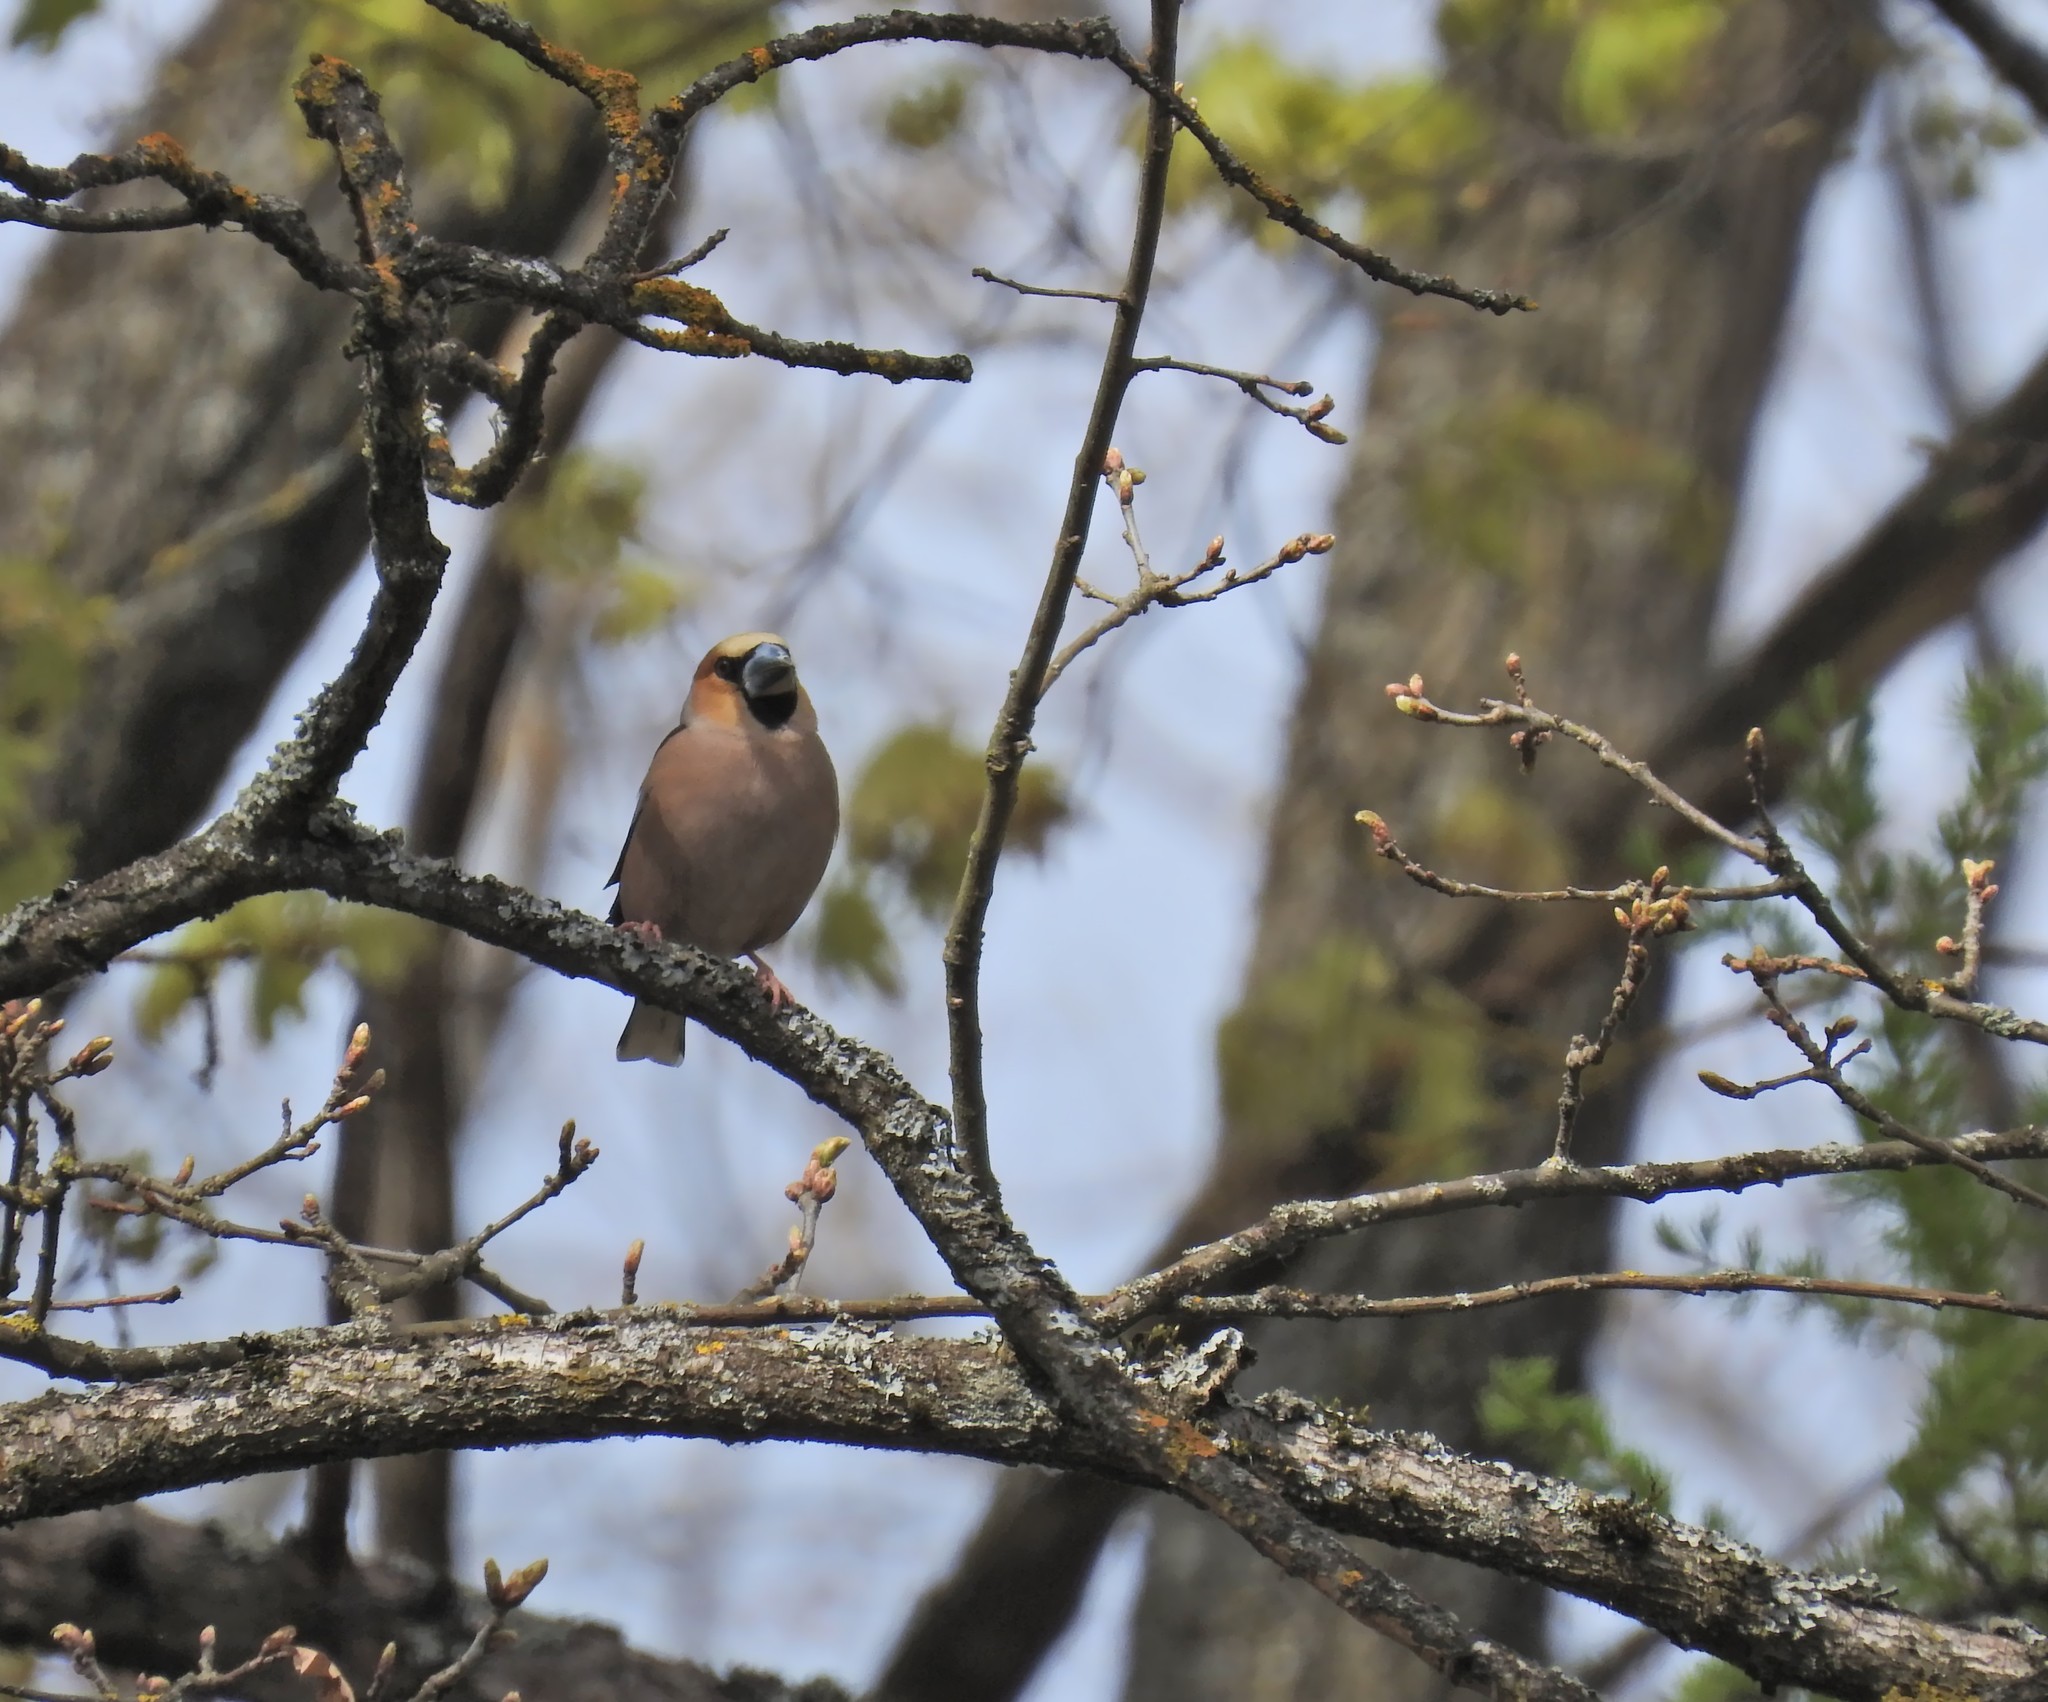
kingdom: Animalia
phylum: Chordata
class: Aves
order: Passeriformes
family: Fringillidae
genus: Coccothraustes
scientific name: Coccothraustes coccothraustes
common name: Hawfinch
